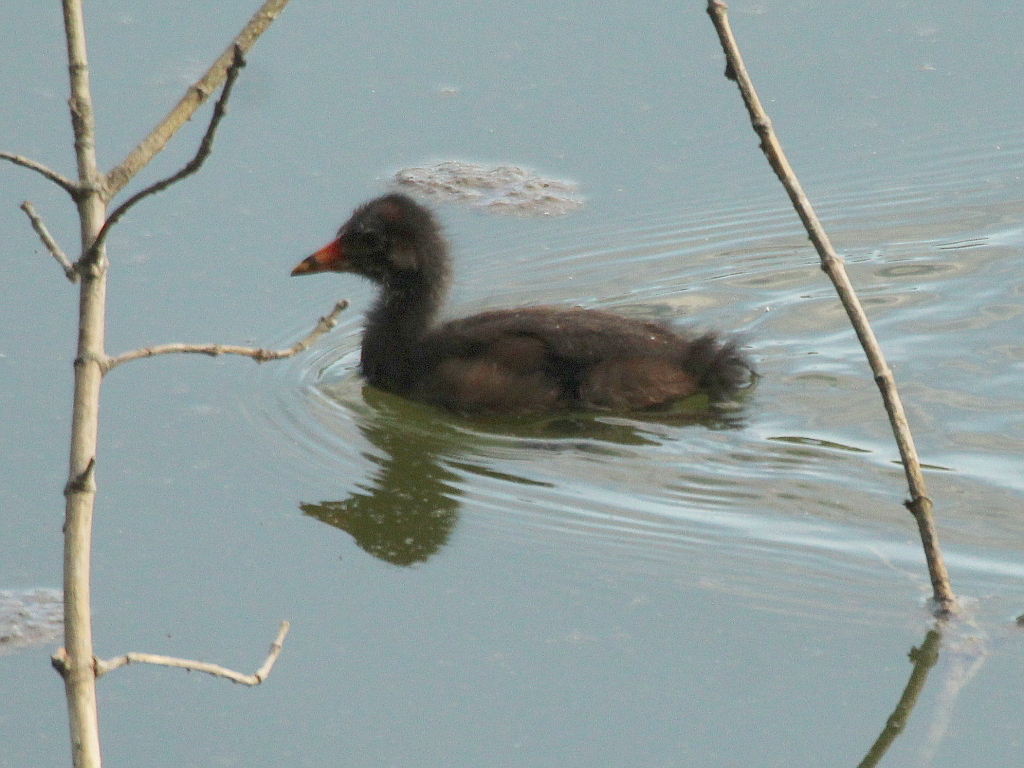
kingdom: Animalia
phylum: Chordata
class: Aves
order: Gruiformes
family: Rallidae
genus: Gallinula
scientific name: Gallinula chloropus
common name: Common moorhen
